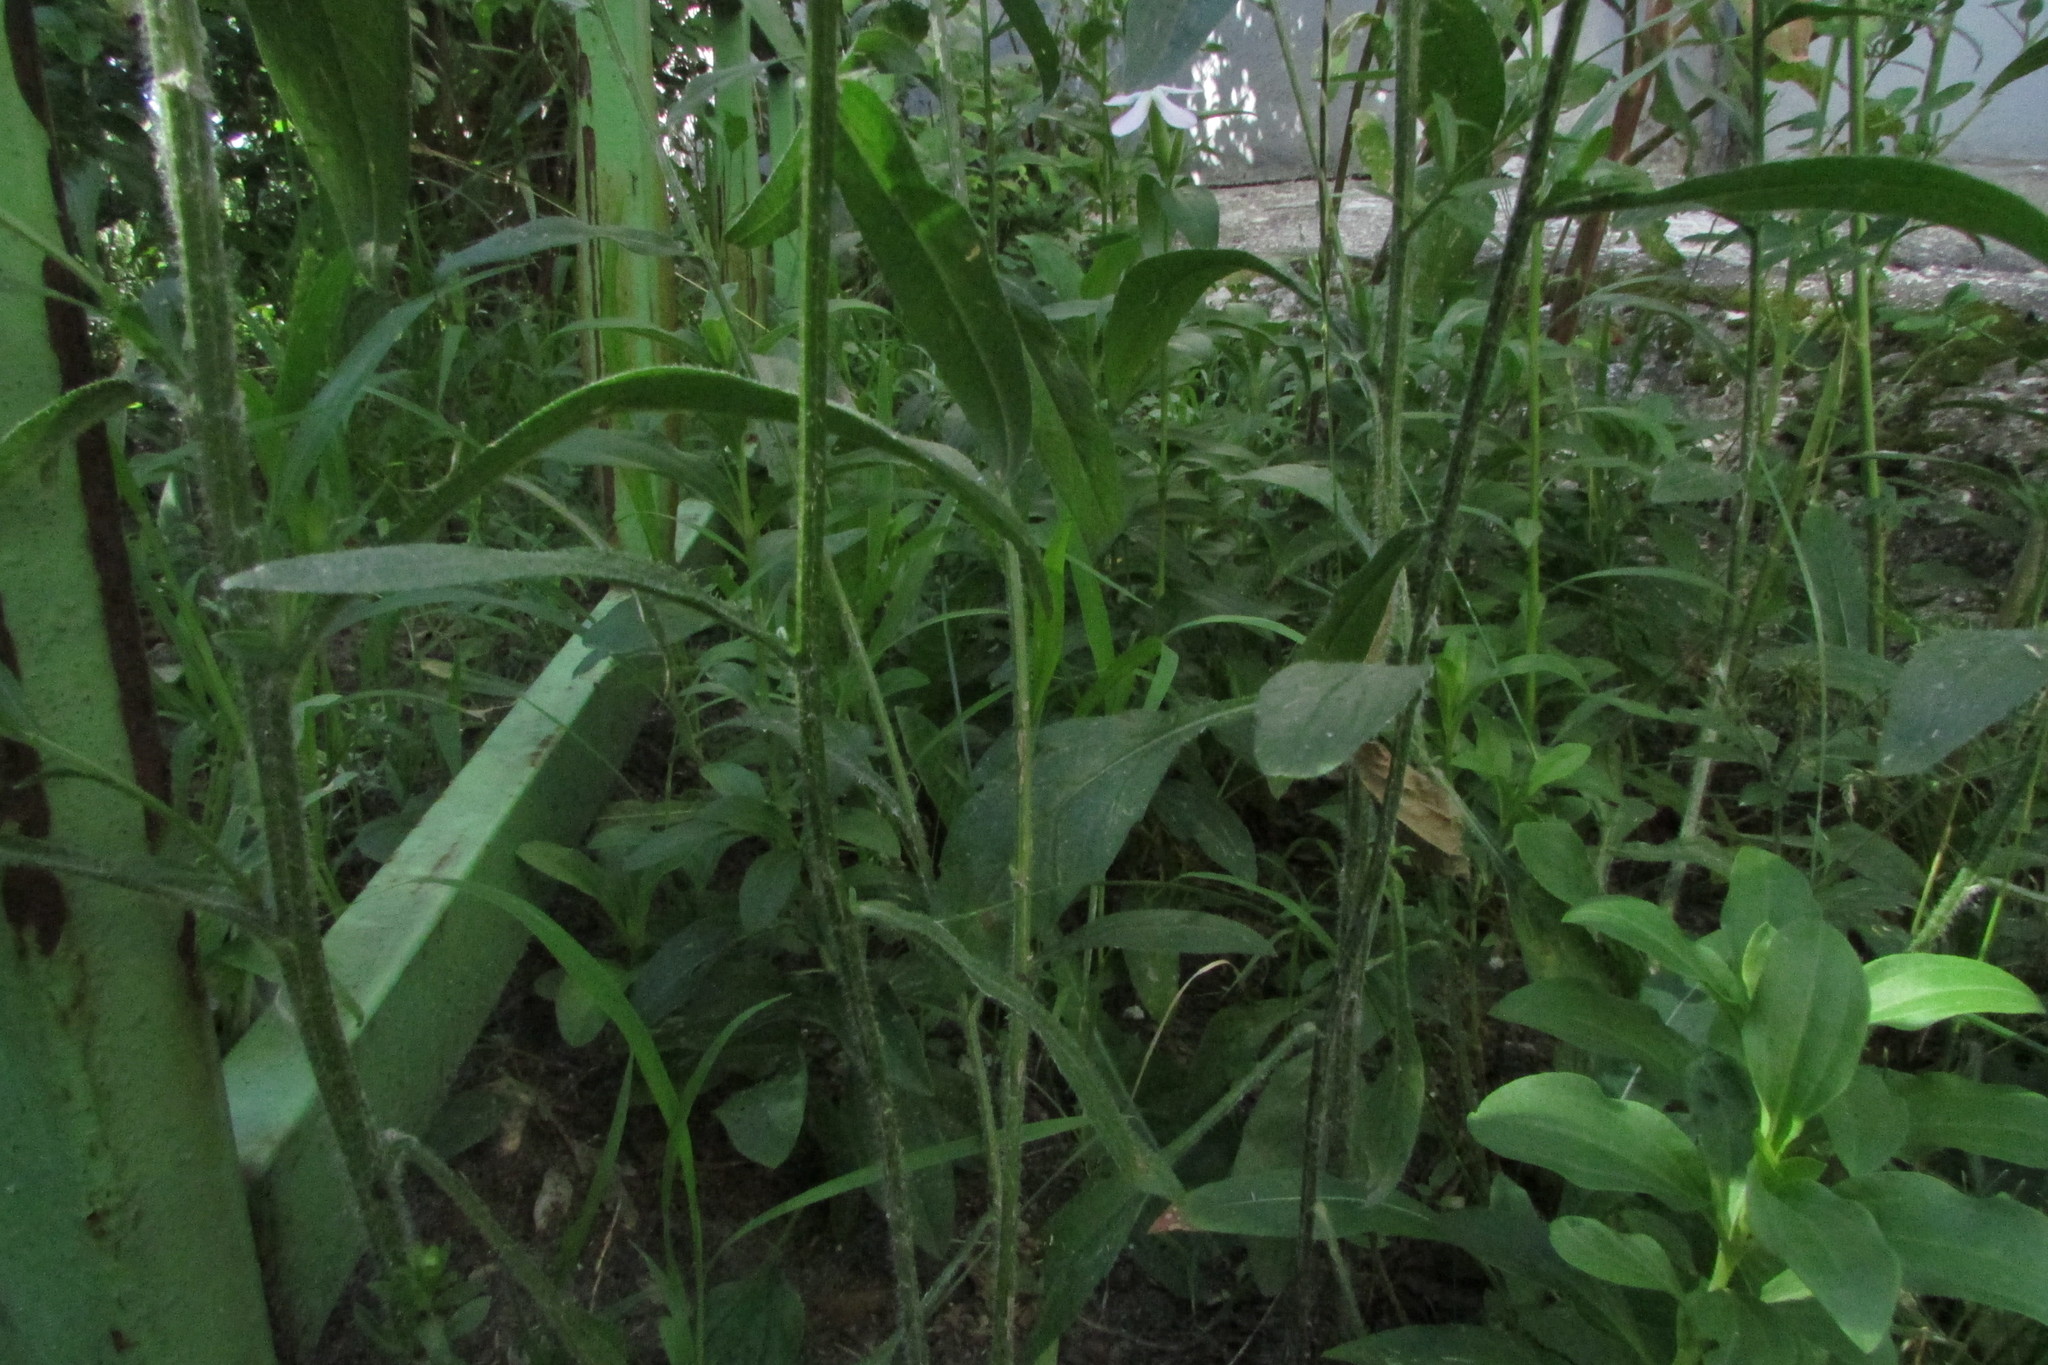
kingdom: Plantae
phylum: Tracheophyta
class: Magnoliopsida
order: Asterales
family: Asteraceae
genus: Erigeron
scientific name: Erigeron annuus
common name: Tall fleabane
